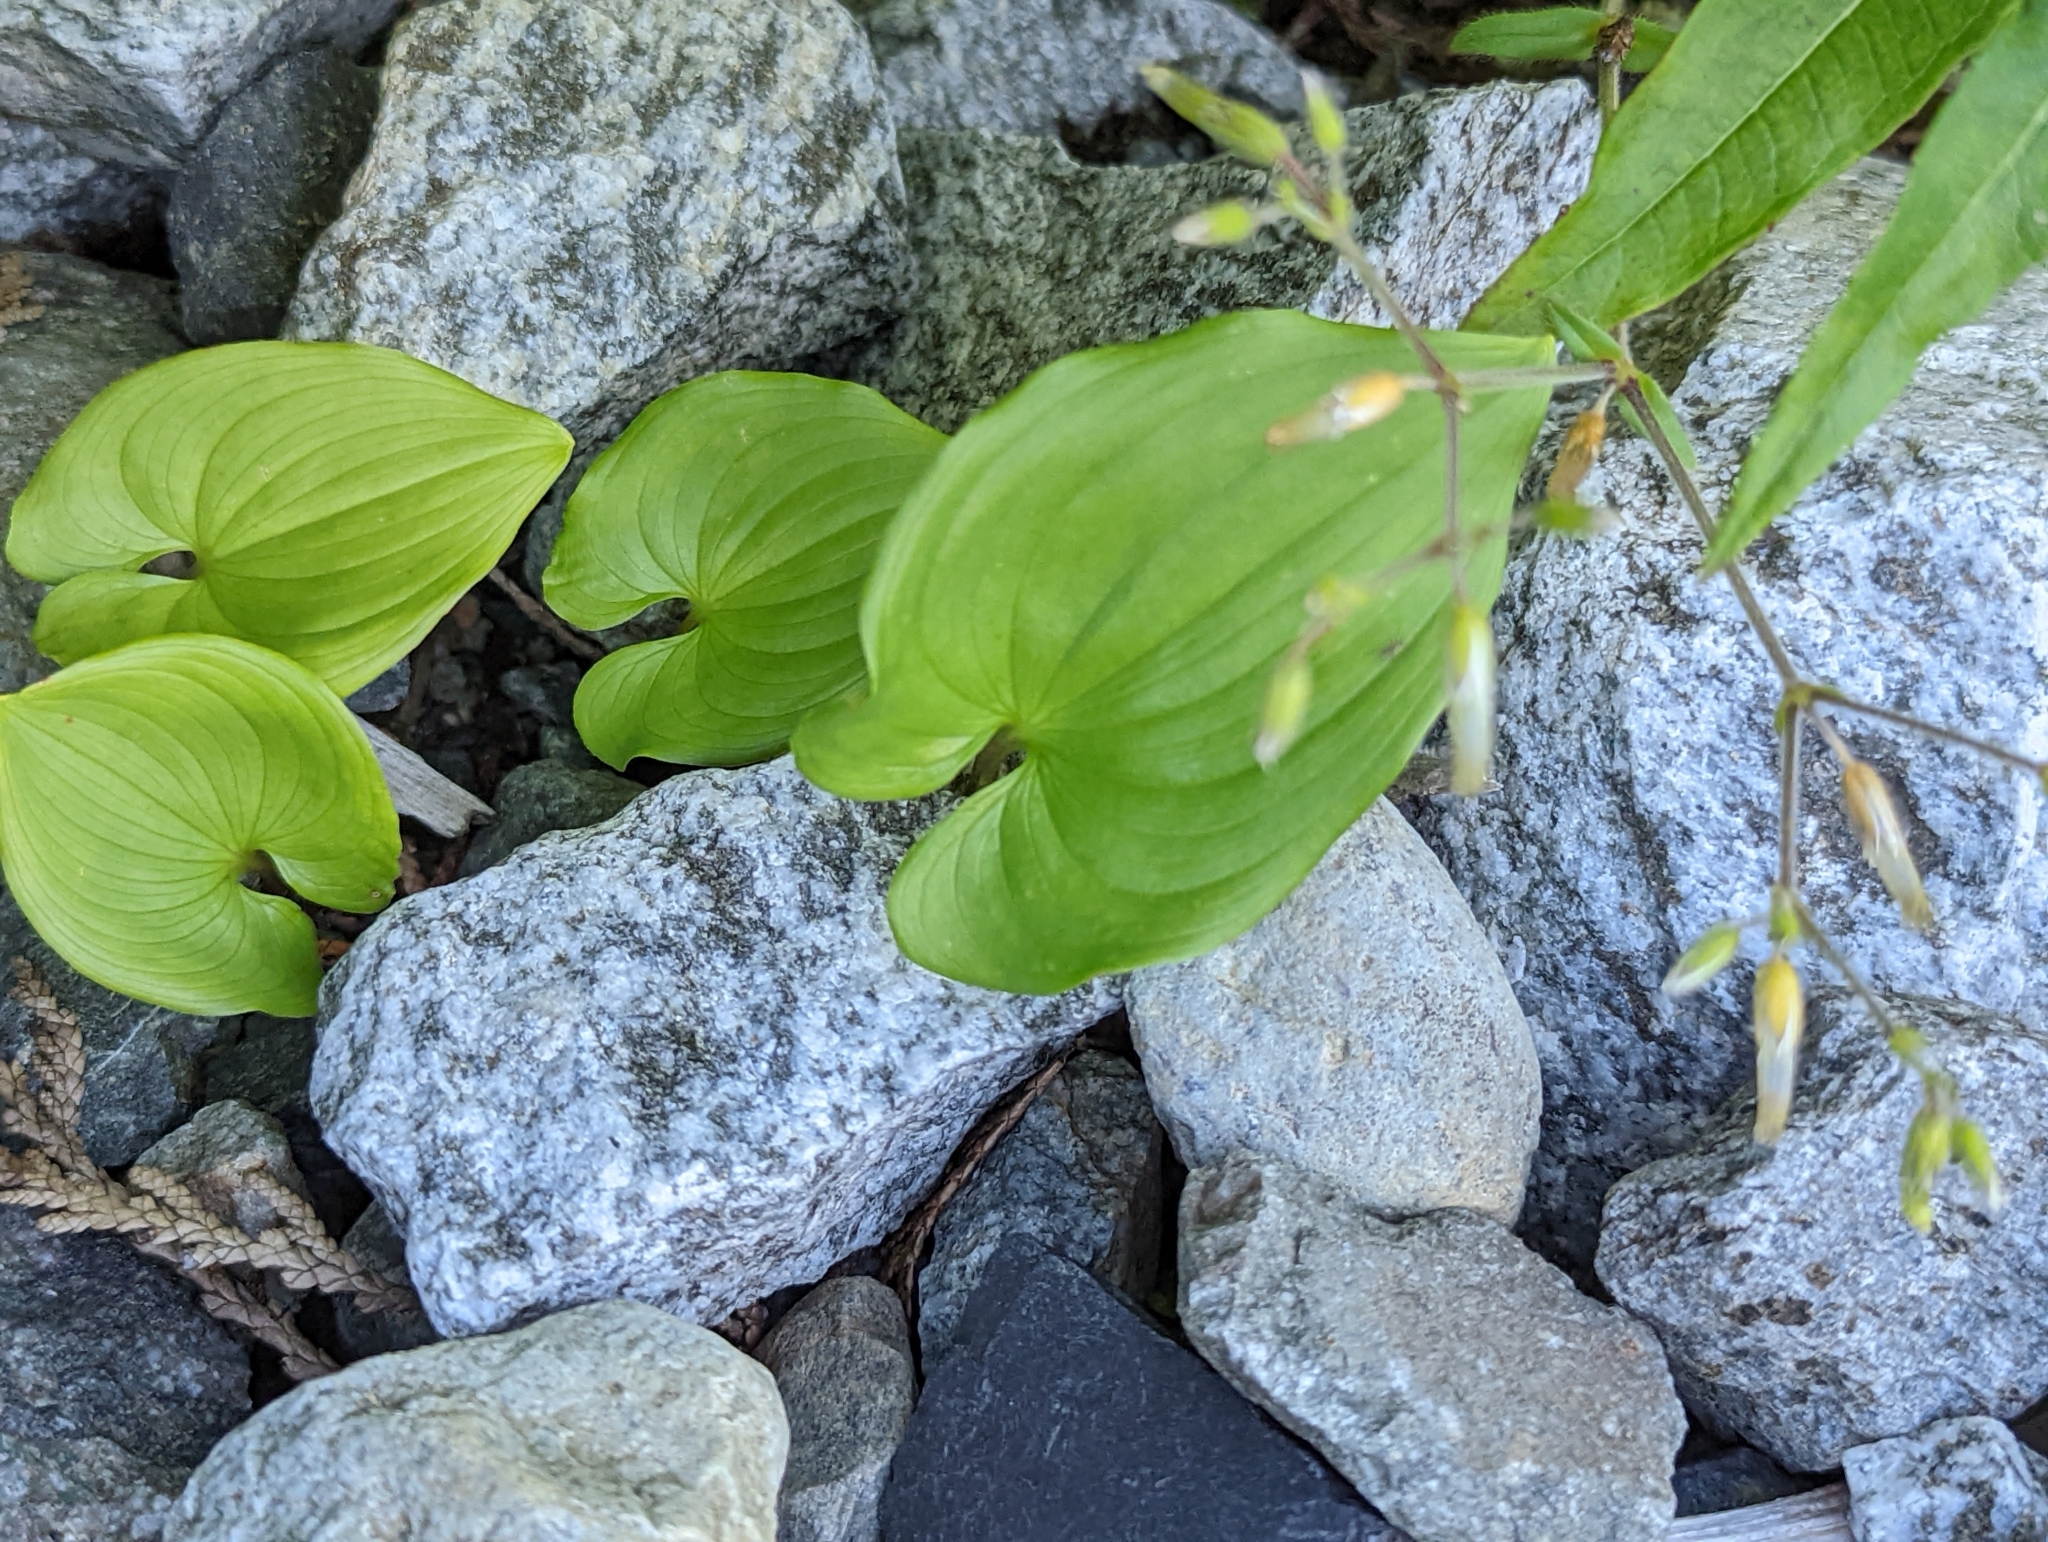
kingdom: Plantae
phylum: Tracheophyta
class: Liliopsida
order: Asparagales
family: Asparagaceae
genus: Maianthemum
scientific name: Maianthemum dilatatum
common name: False lily-of-the-valley
